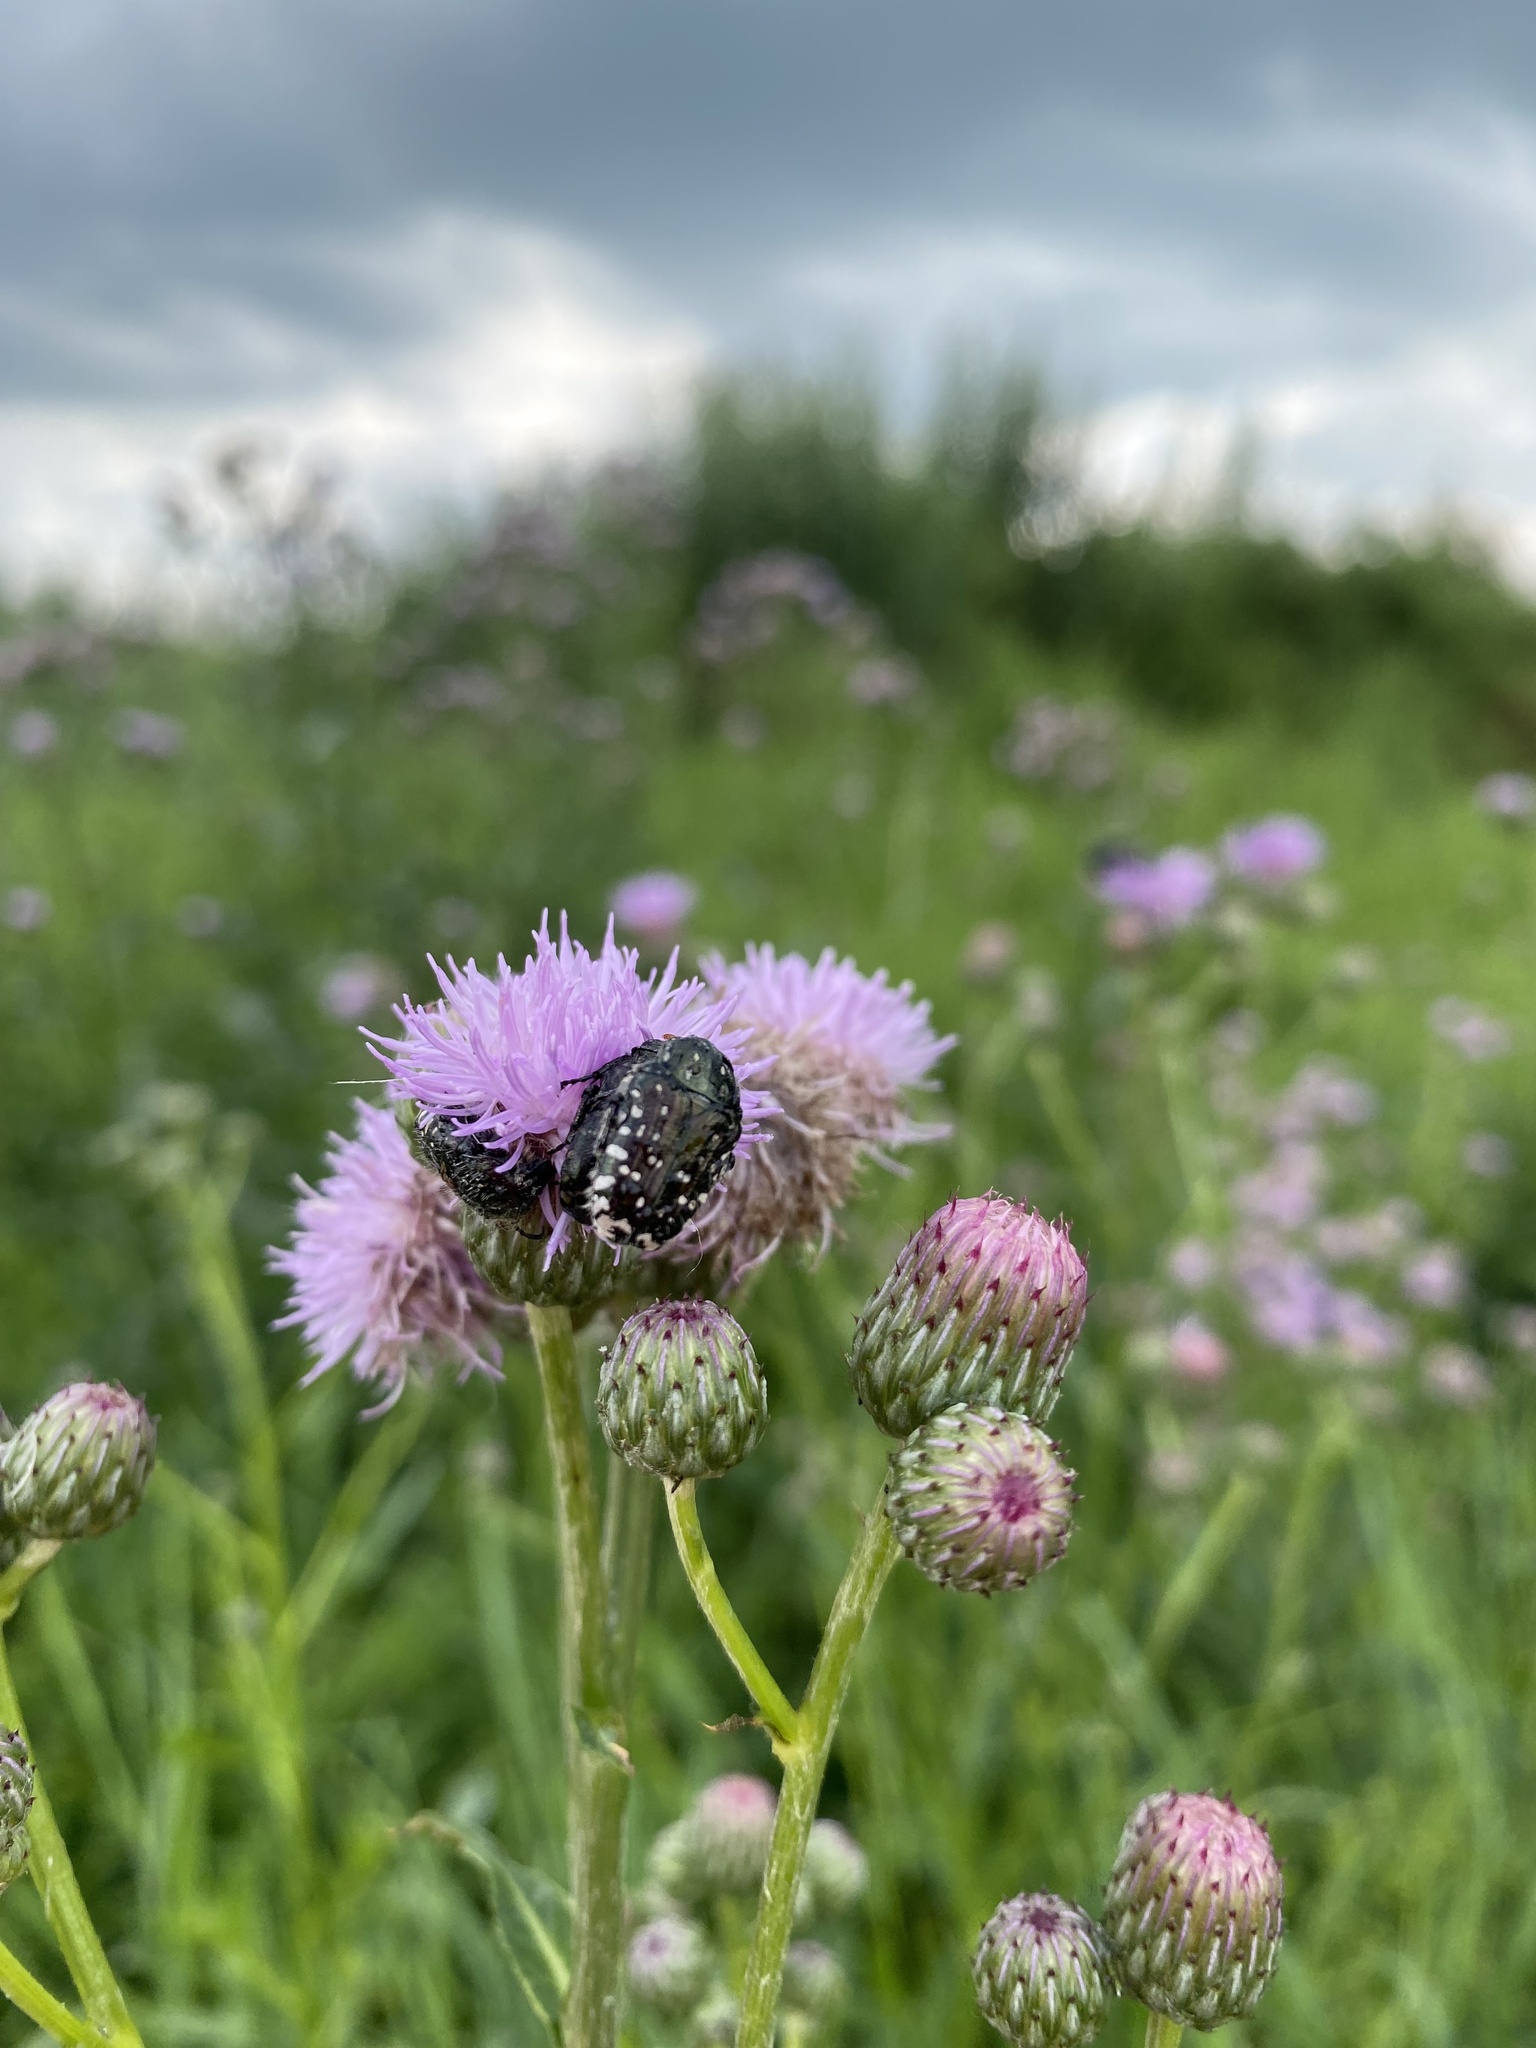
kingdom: Animalia
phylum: Arthropoda
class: Insecta
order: Coleoptera
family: Scarabaeidae
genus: Oxythyrea
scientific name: Oxythyrea funesta
